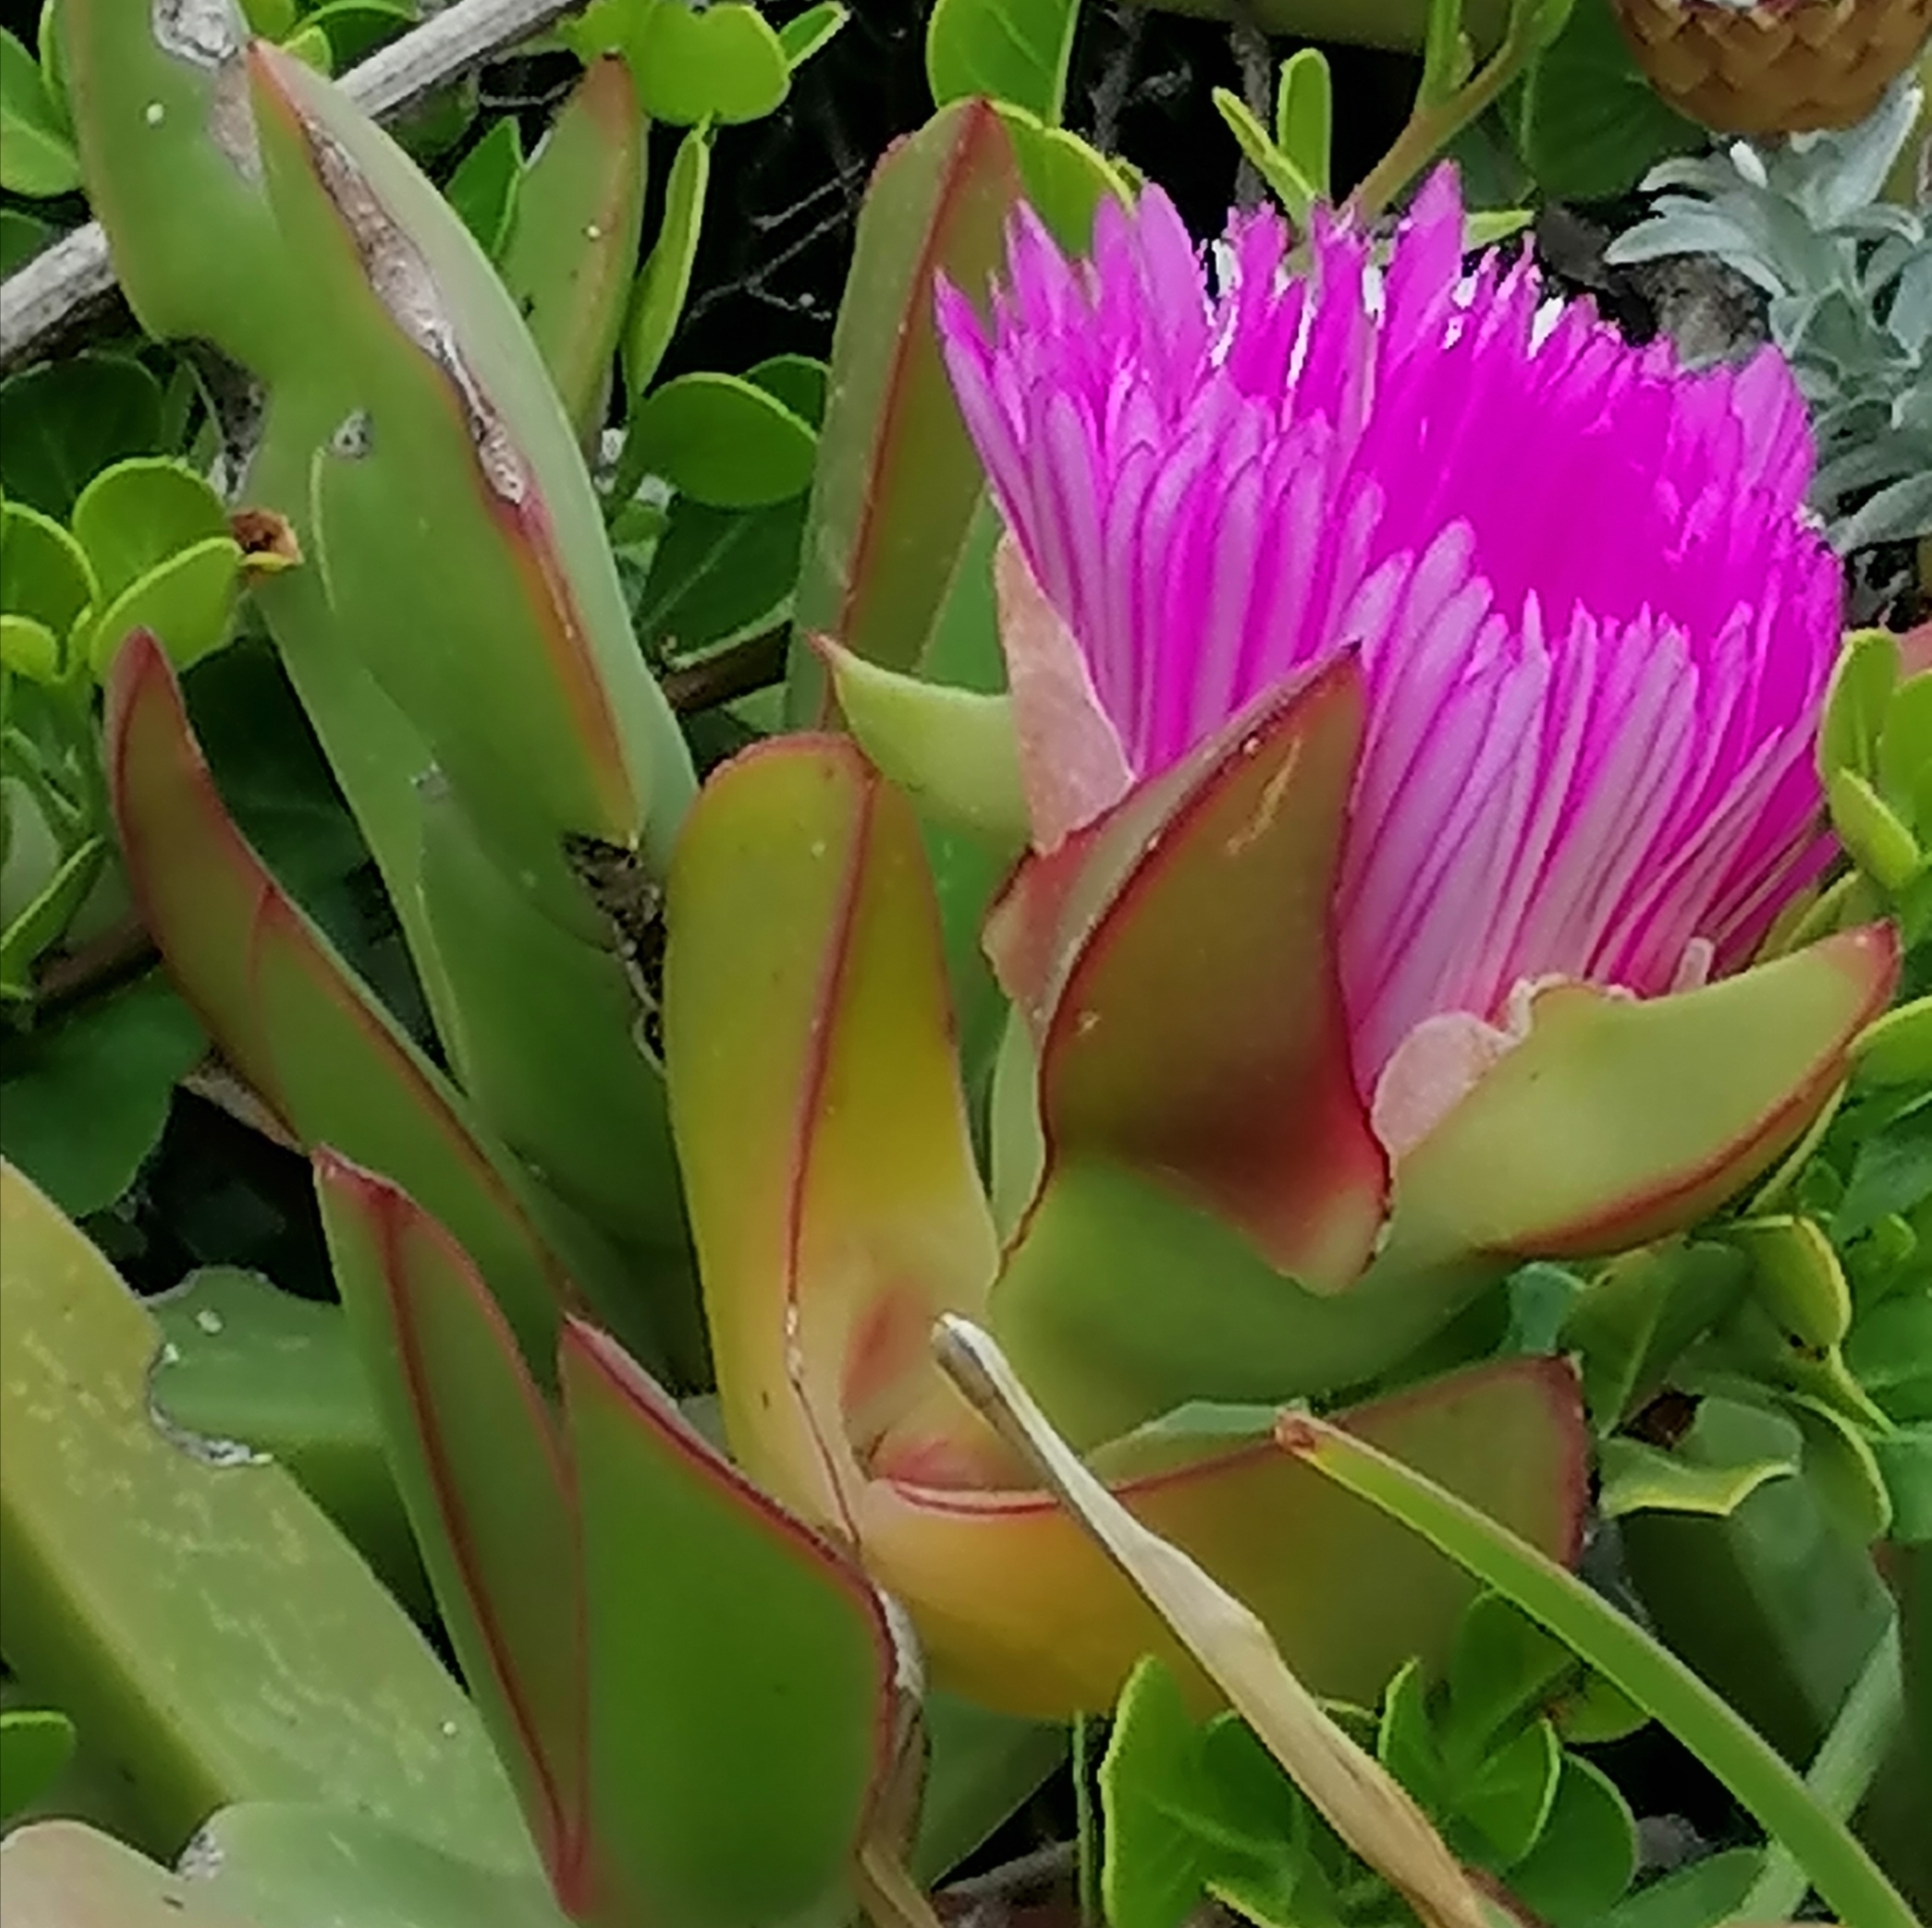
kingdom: Plantae
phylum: Tracheophyta
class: Magnoliopsida
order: Caryophyllales
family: Aizoaceae
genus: Carpobrotus
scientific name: Carpobrotus acinaciformis
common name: Sally-my-handsome
